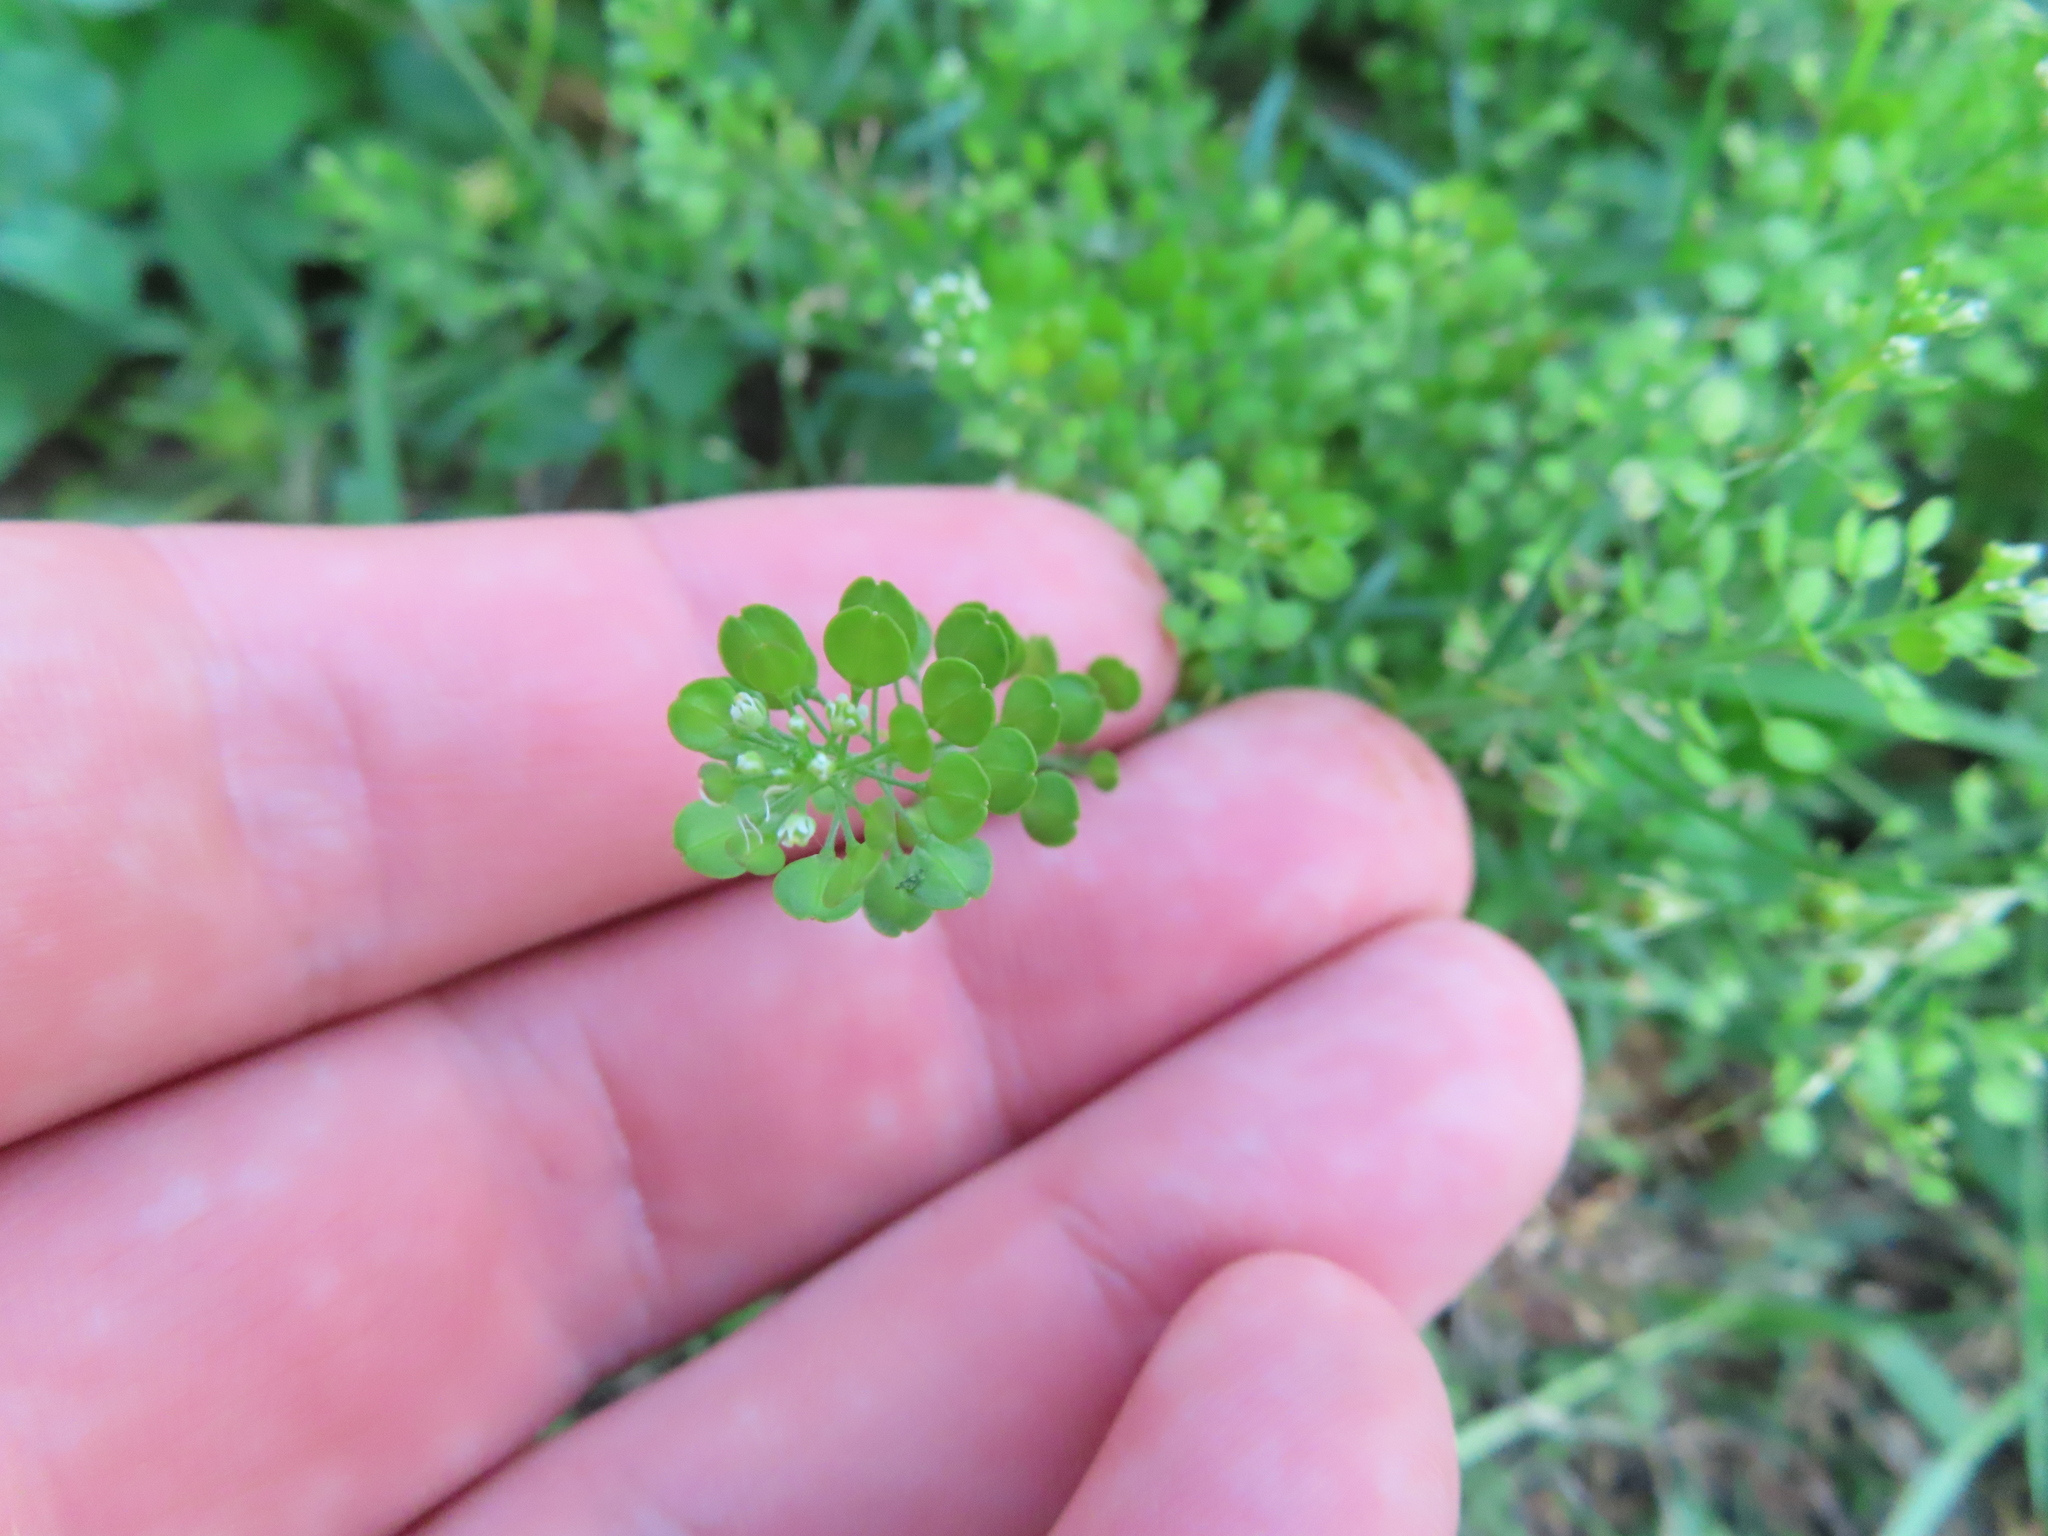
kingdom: Plantae
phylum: Tracheophyta
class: Magnoliopsida
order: Brassicales
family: Brassicaceae
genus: Lepidium
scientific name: Lepidium virginicum
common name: Least pepperwort
